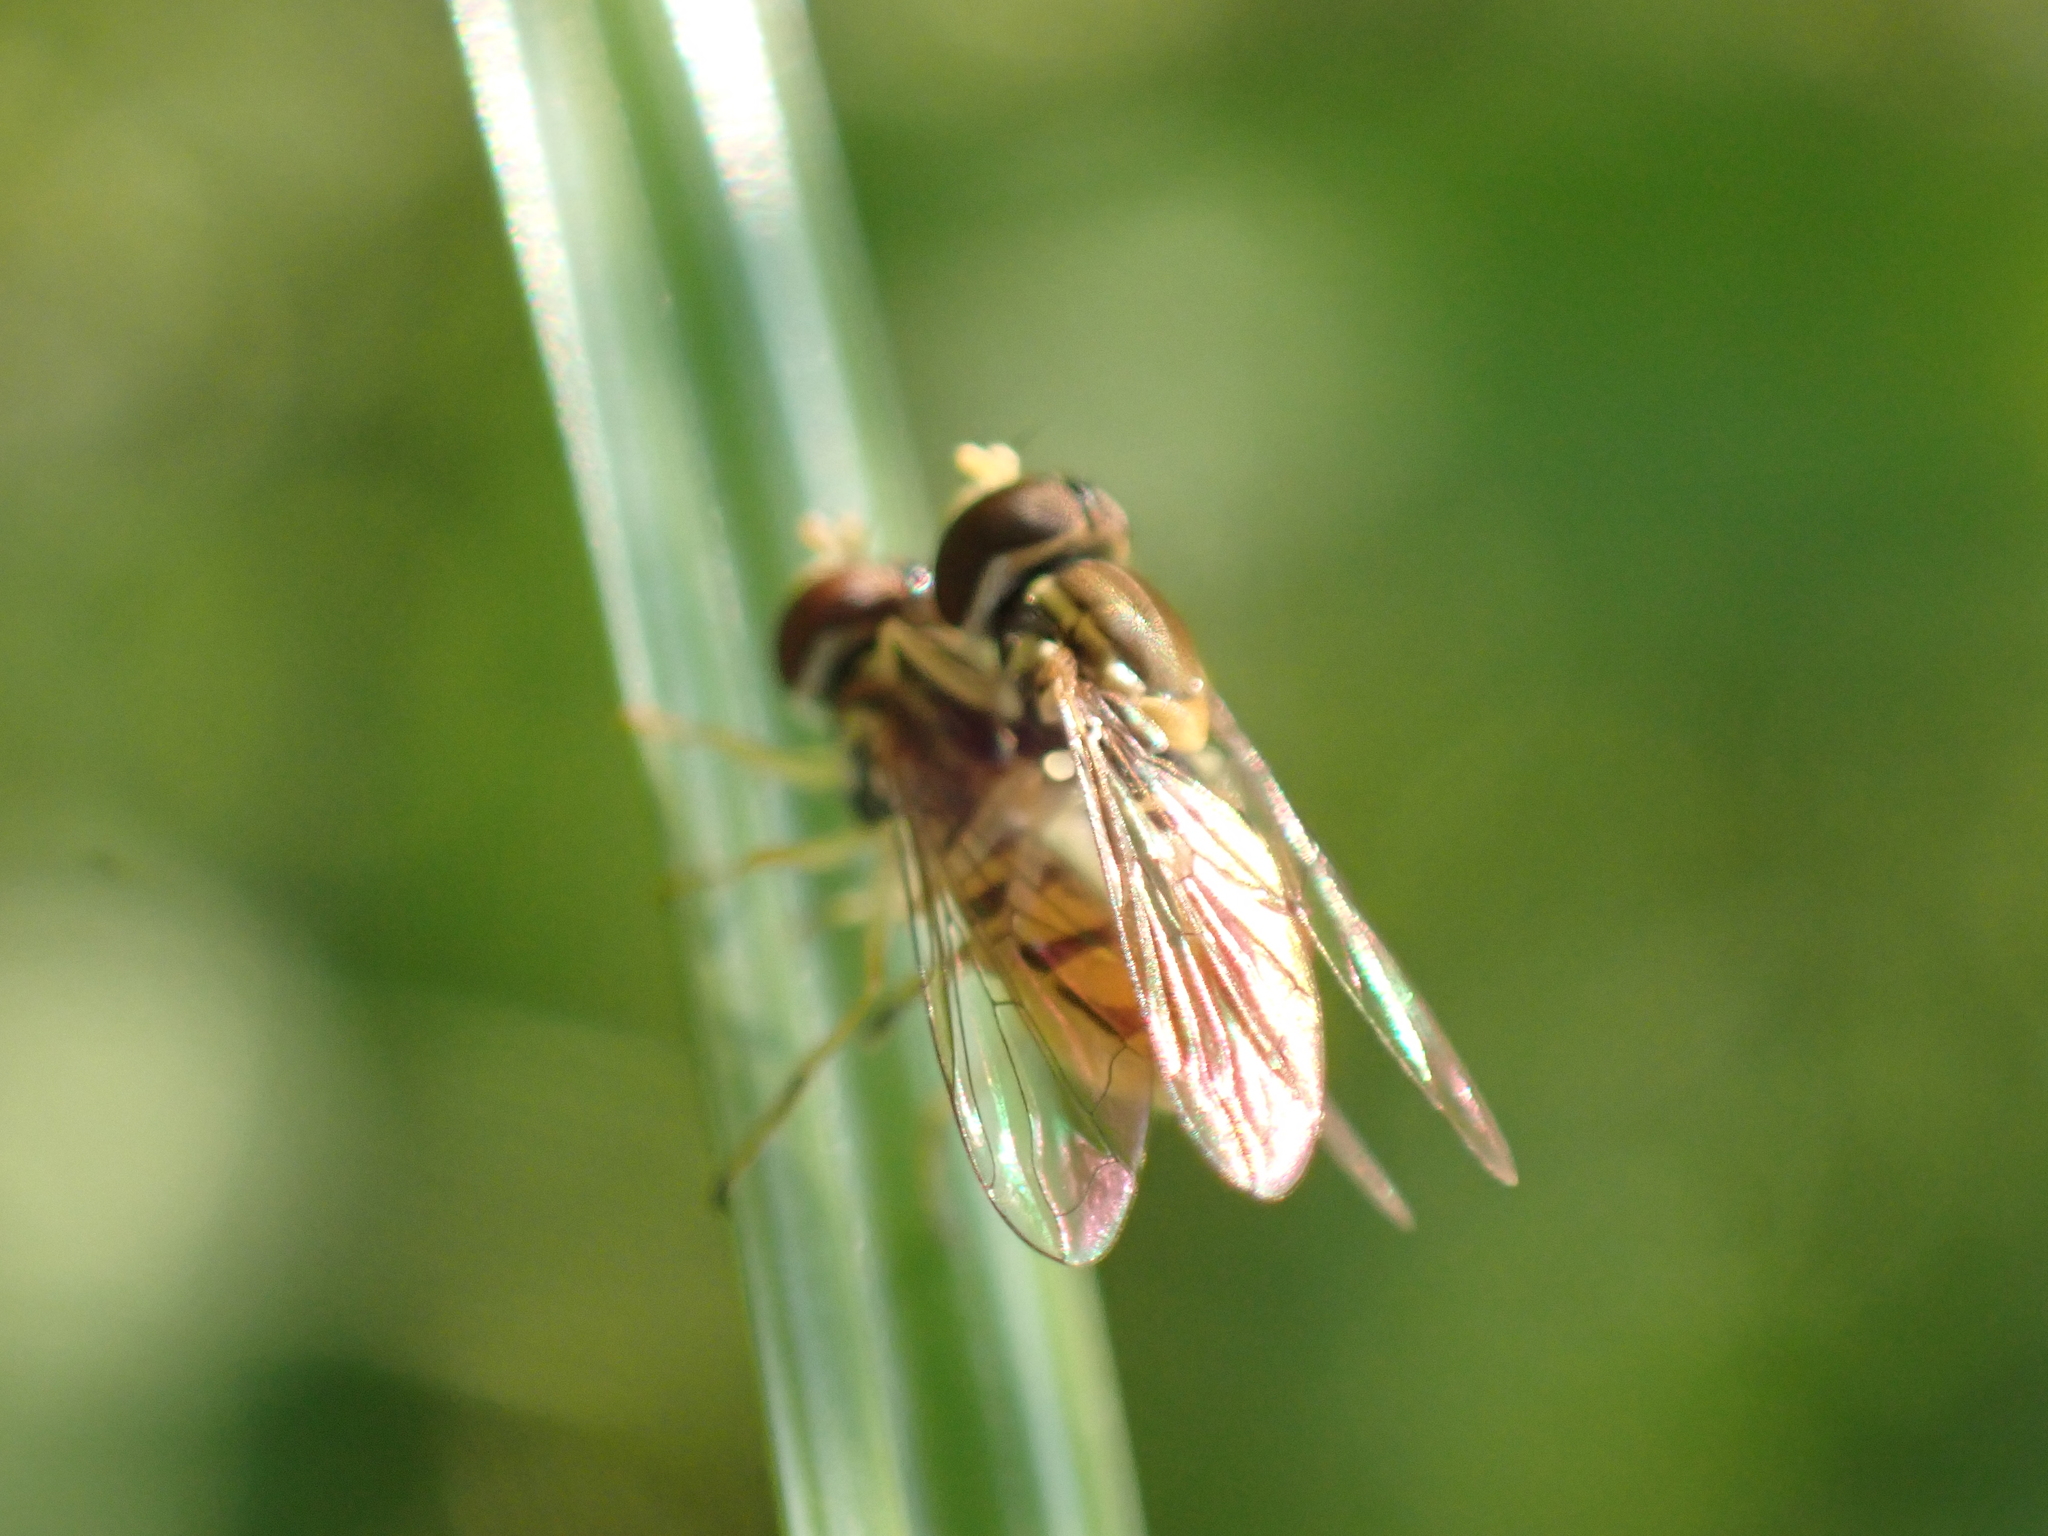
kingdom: Animalia
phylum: Arthropoda
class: Insecta
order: Diptera
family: Syrphidae
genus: Toxomerus
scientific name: Toxomerus marginatus
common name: Syrphid fly
